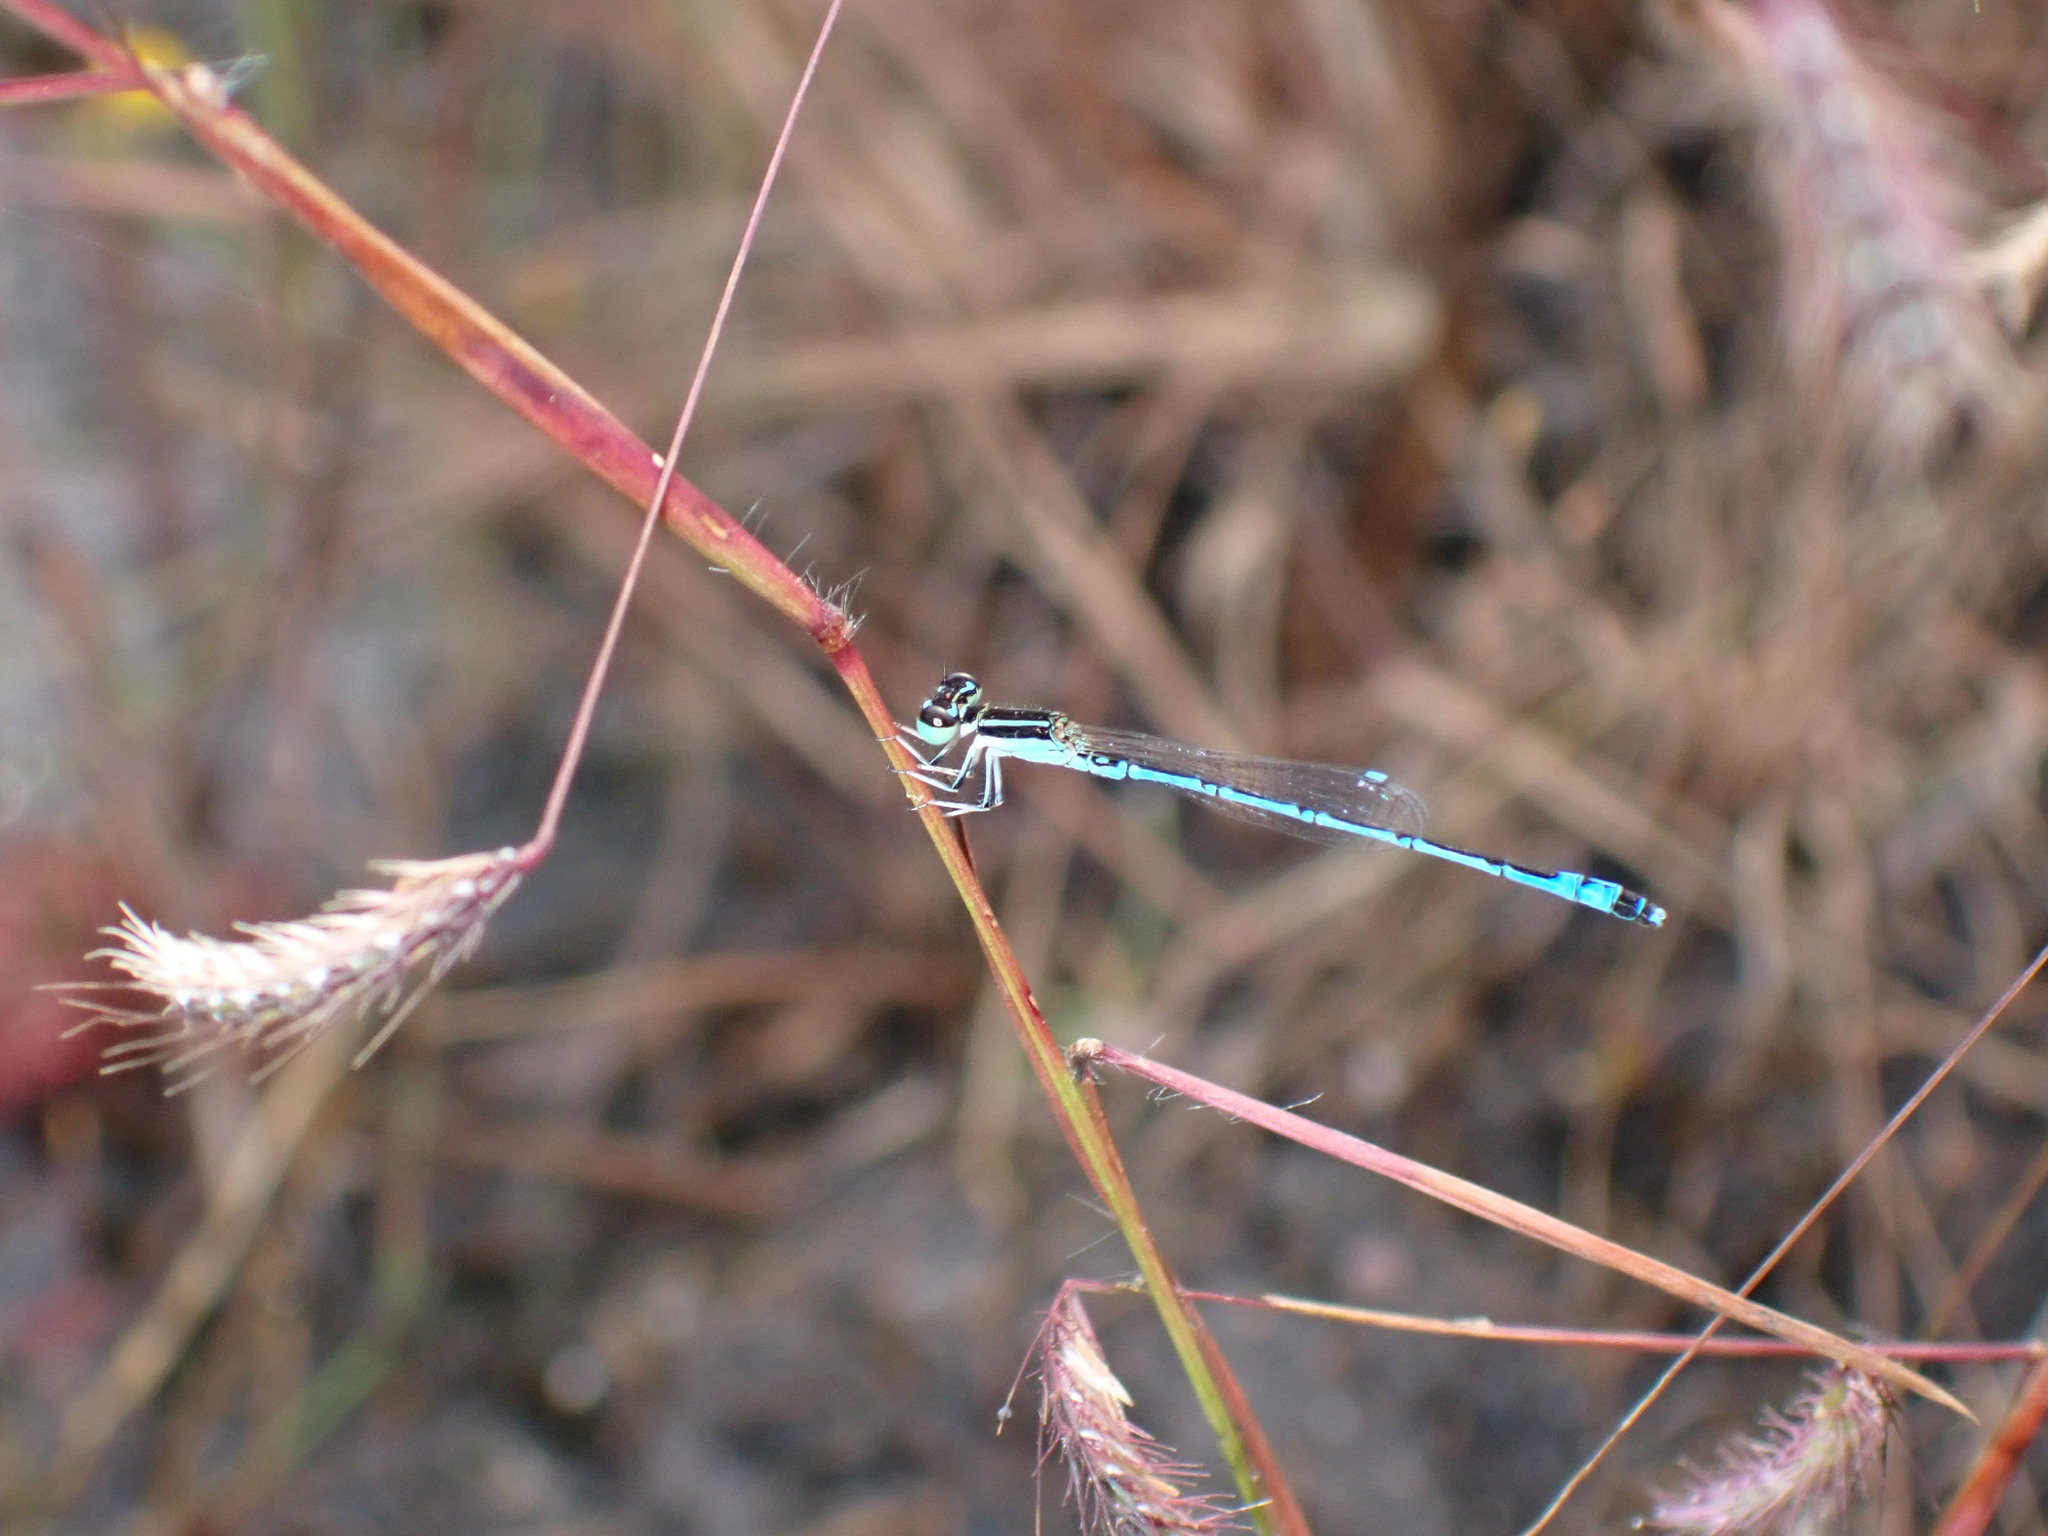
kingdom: Animalia
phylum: Arthropoda
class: Insecta
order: Odonata
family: Coenagrionidae
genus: Agriocnemis
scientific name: Agriocnemis nana
